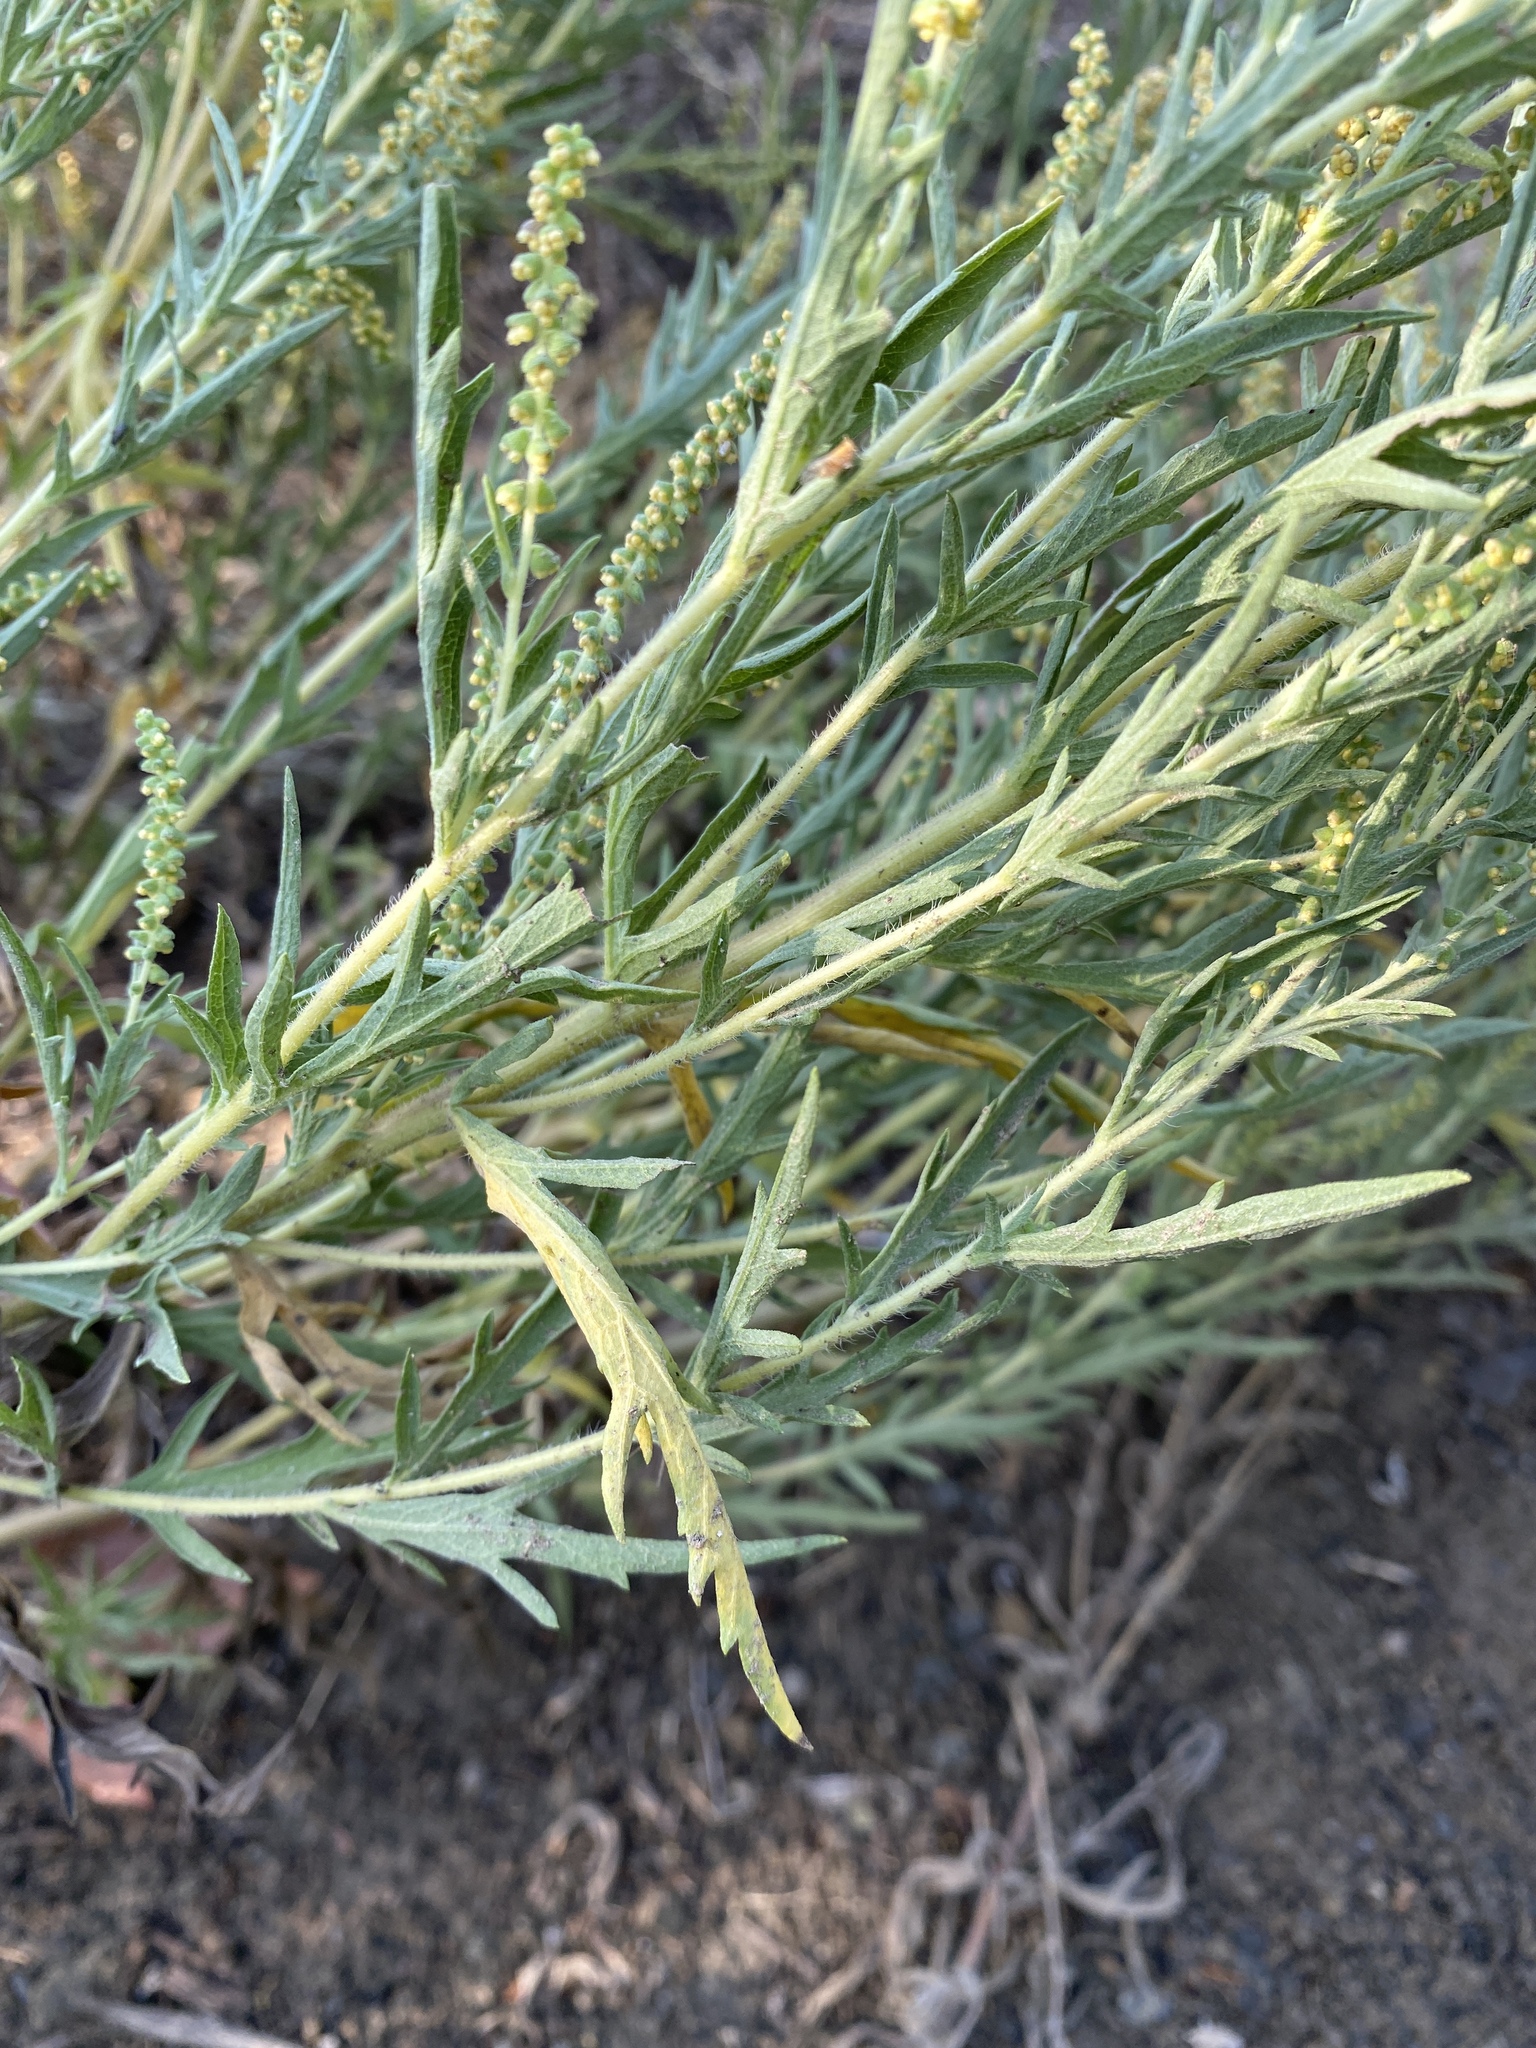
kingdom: Plantae
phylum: Tracheophyta
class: Magnoliopsida
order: Asterales
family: Asteraceae
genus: Ambrosia
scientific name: Ambrosia psilostachya
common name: Perennial ragweed
